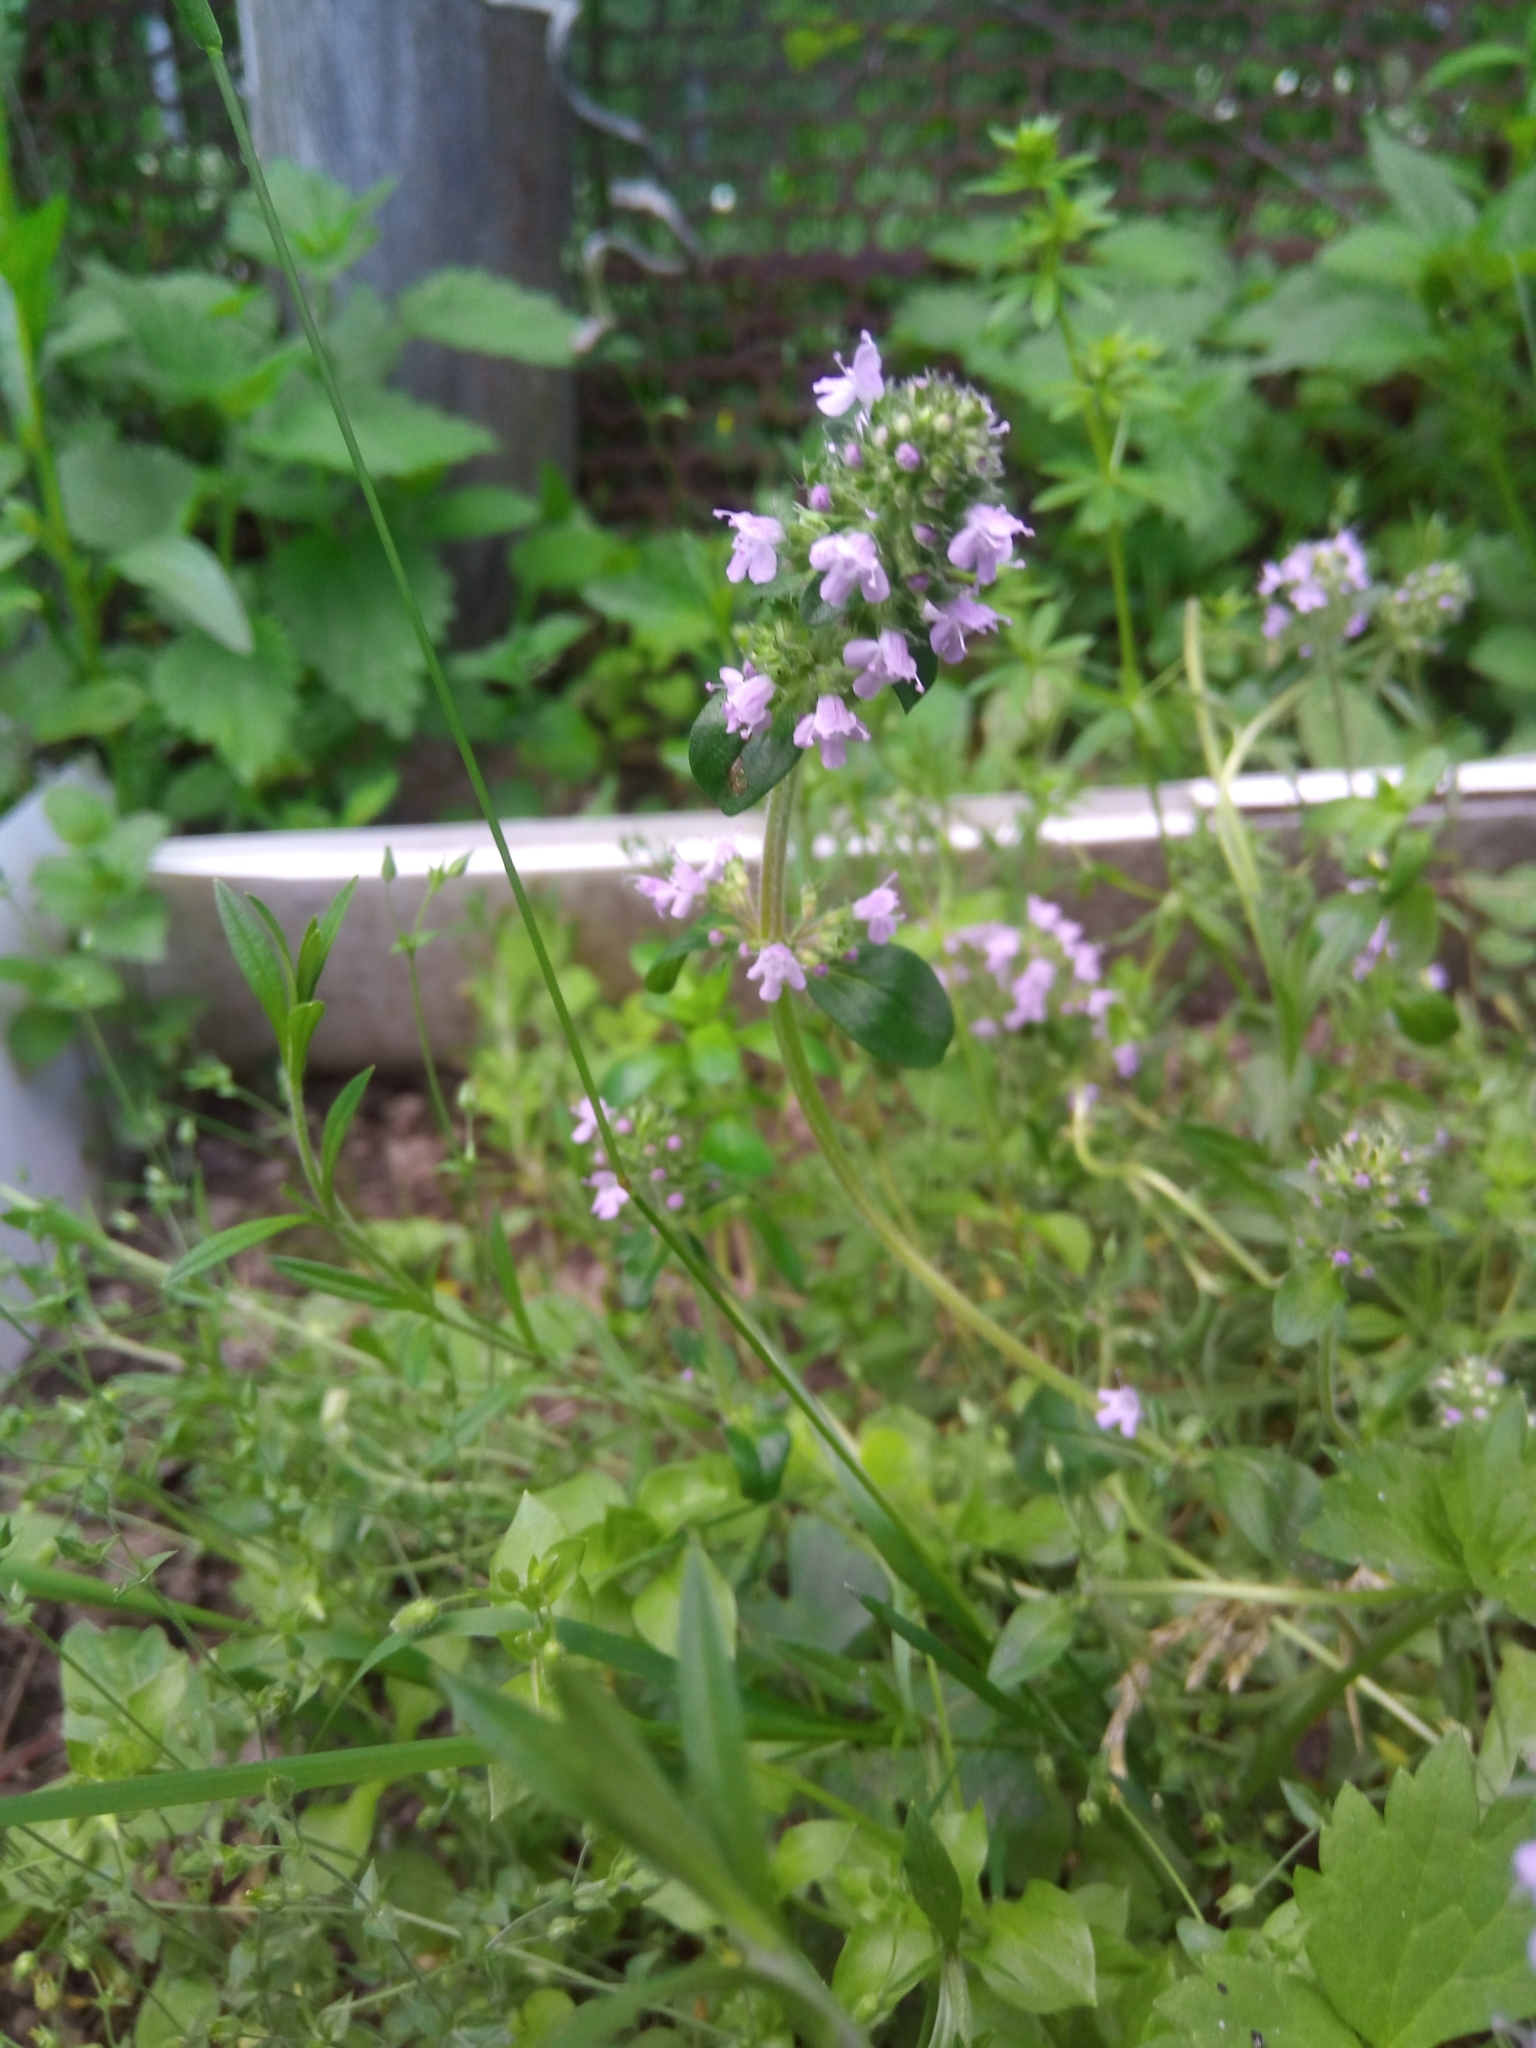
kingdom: Plantae
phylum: Tracheophyta
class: Magnoliopsida
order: Lamiales
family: Lamiaceae
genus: Thymus
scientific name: Thymus pulegioides
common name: Large thyme
